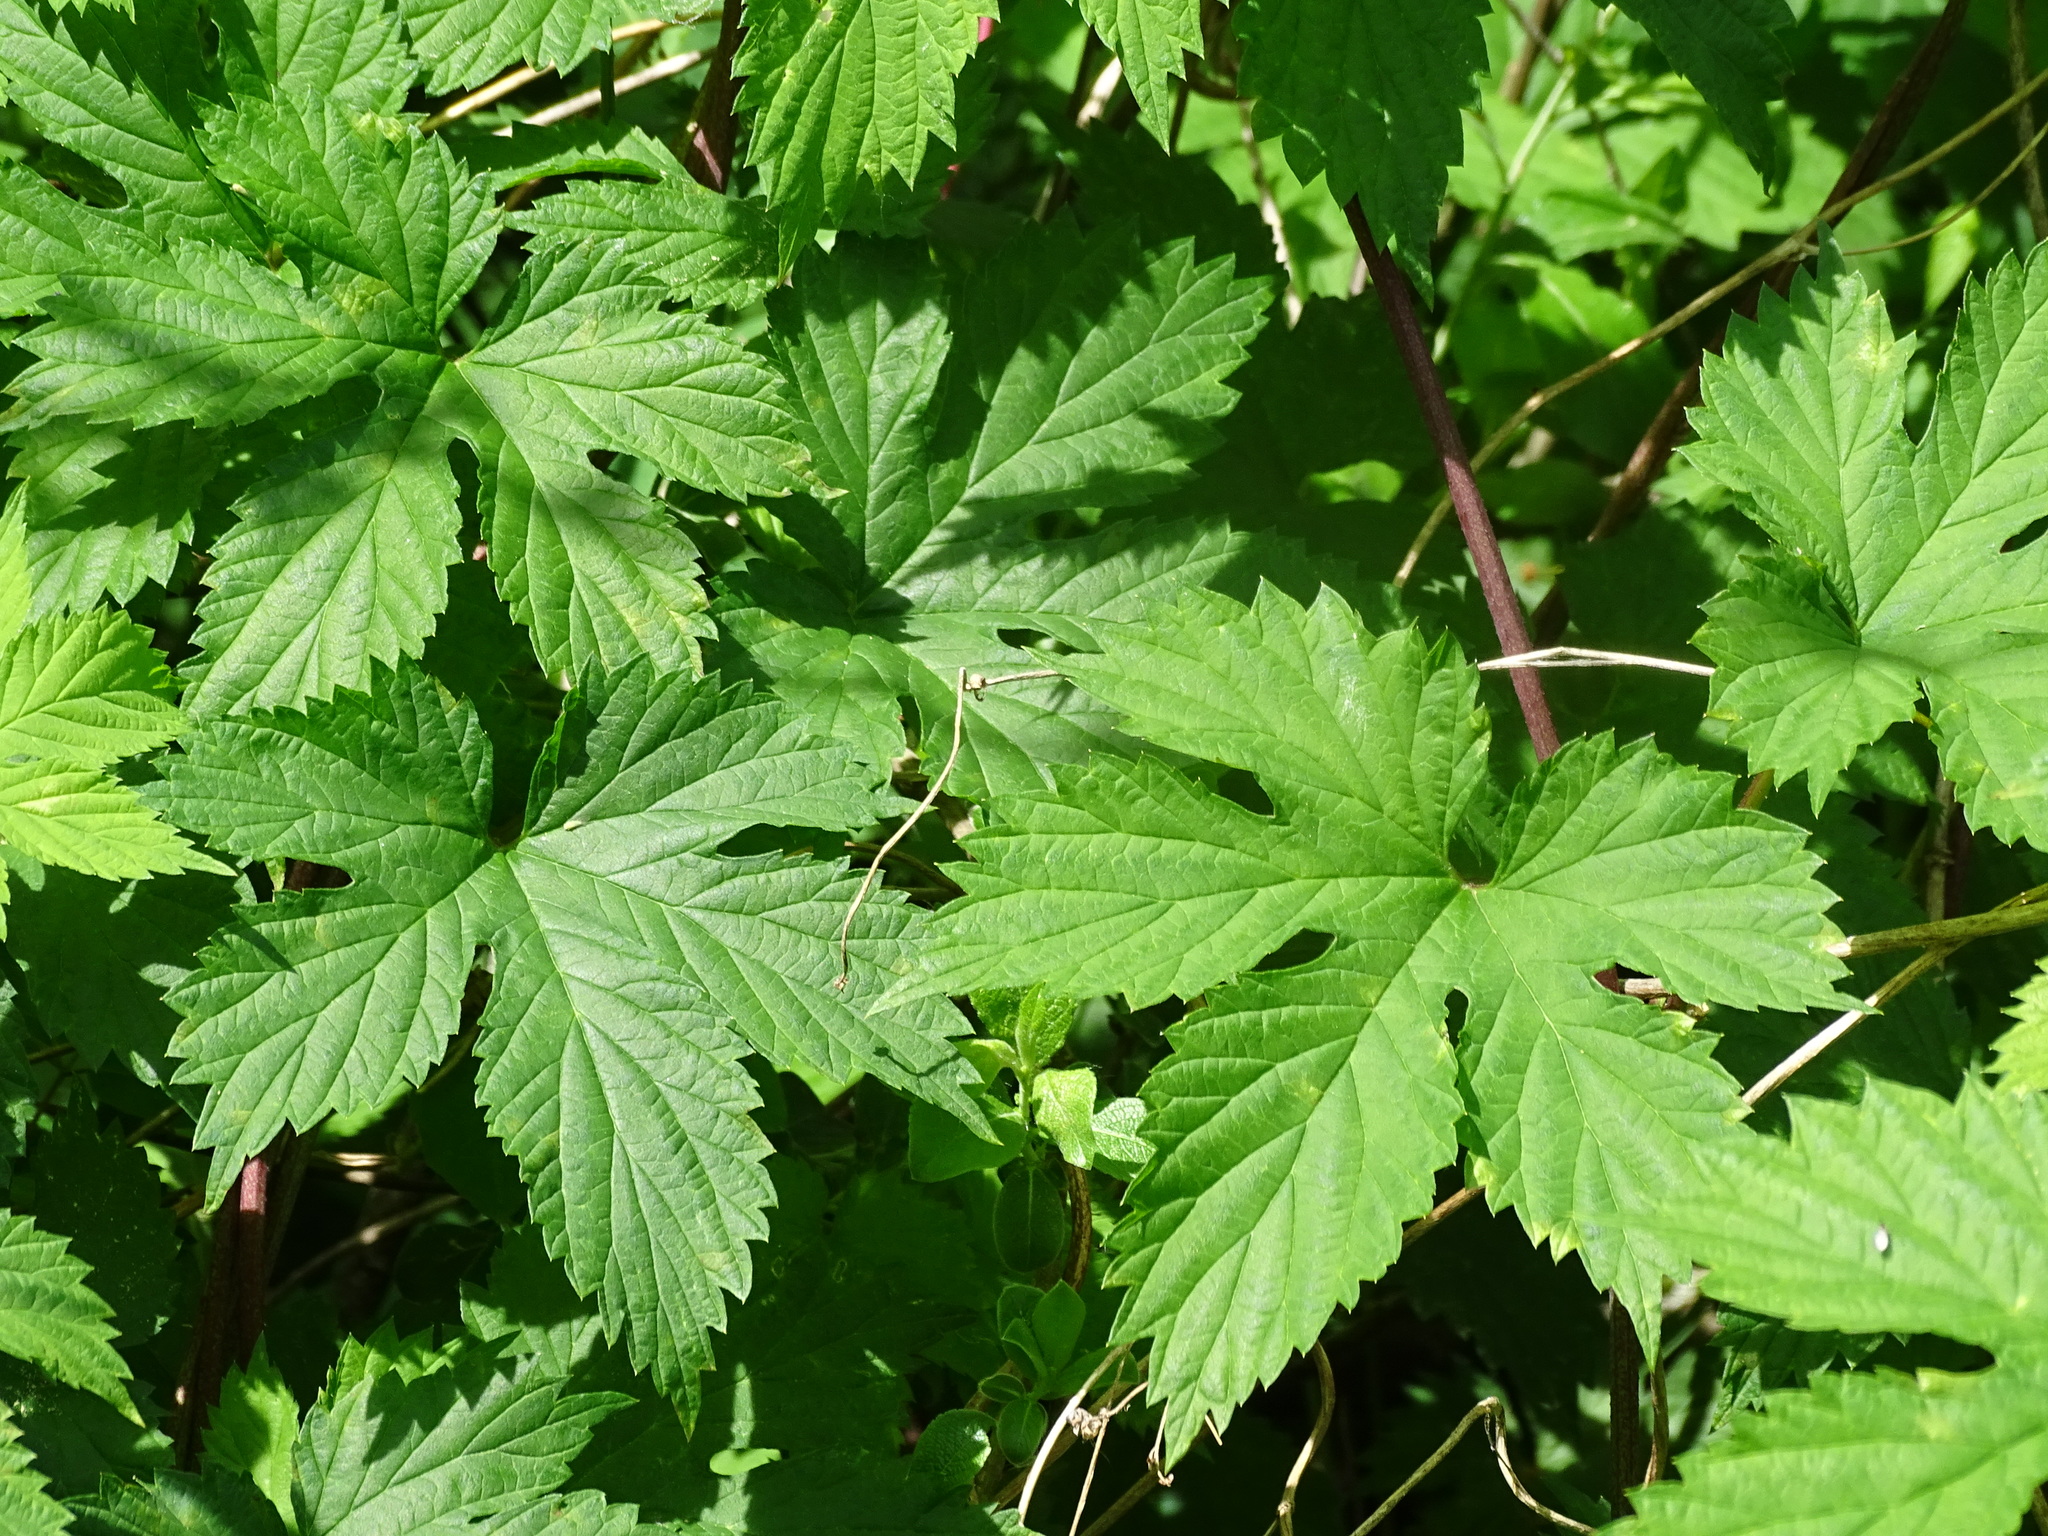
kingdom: Plantae
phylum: Tracheophyta
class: Magnoliopsida
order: Rosales
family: Cannabaceae
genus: Humulus
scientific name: Humulus lupulus
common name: Hop
